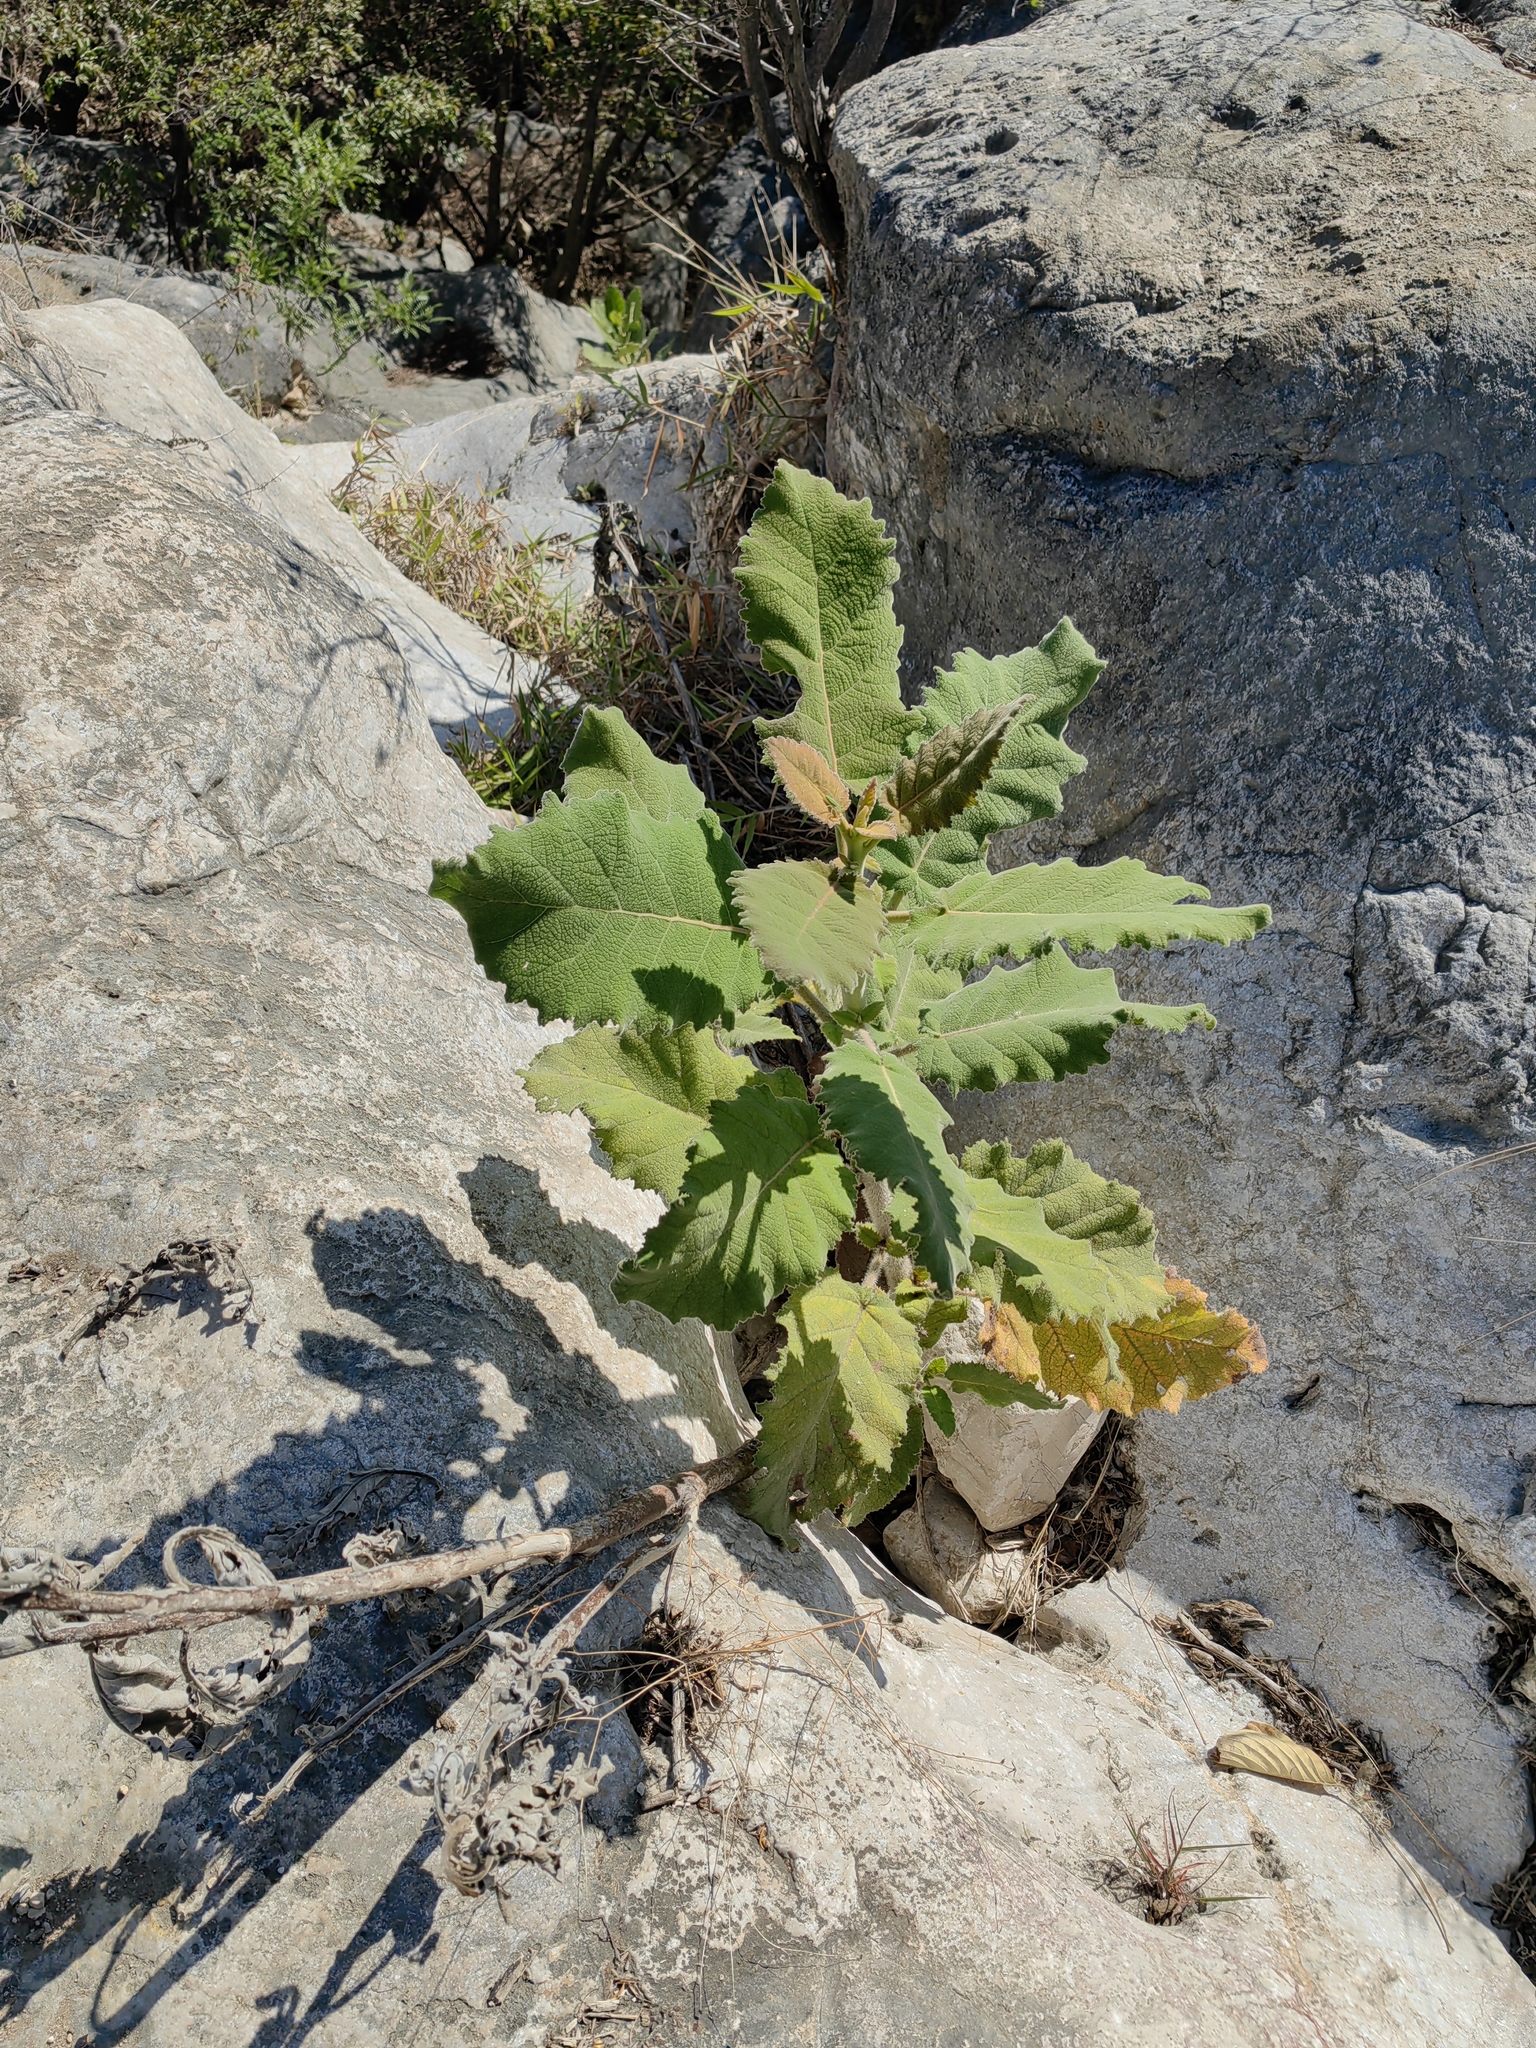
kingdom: Plantae
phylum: Tracheophyta
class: Magnoliopsida
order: Boraginales
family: Namaceae
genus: Wigandia
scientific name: Wigandia urens
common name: Caracus wigandia
